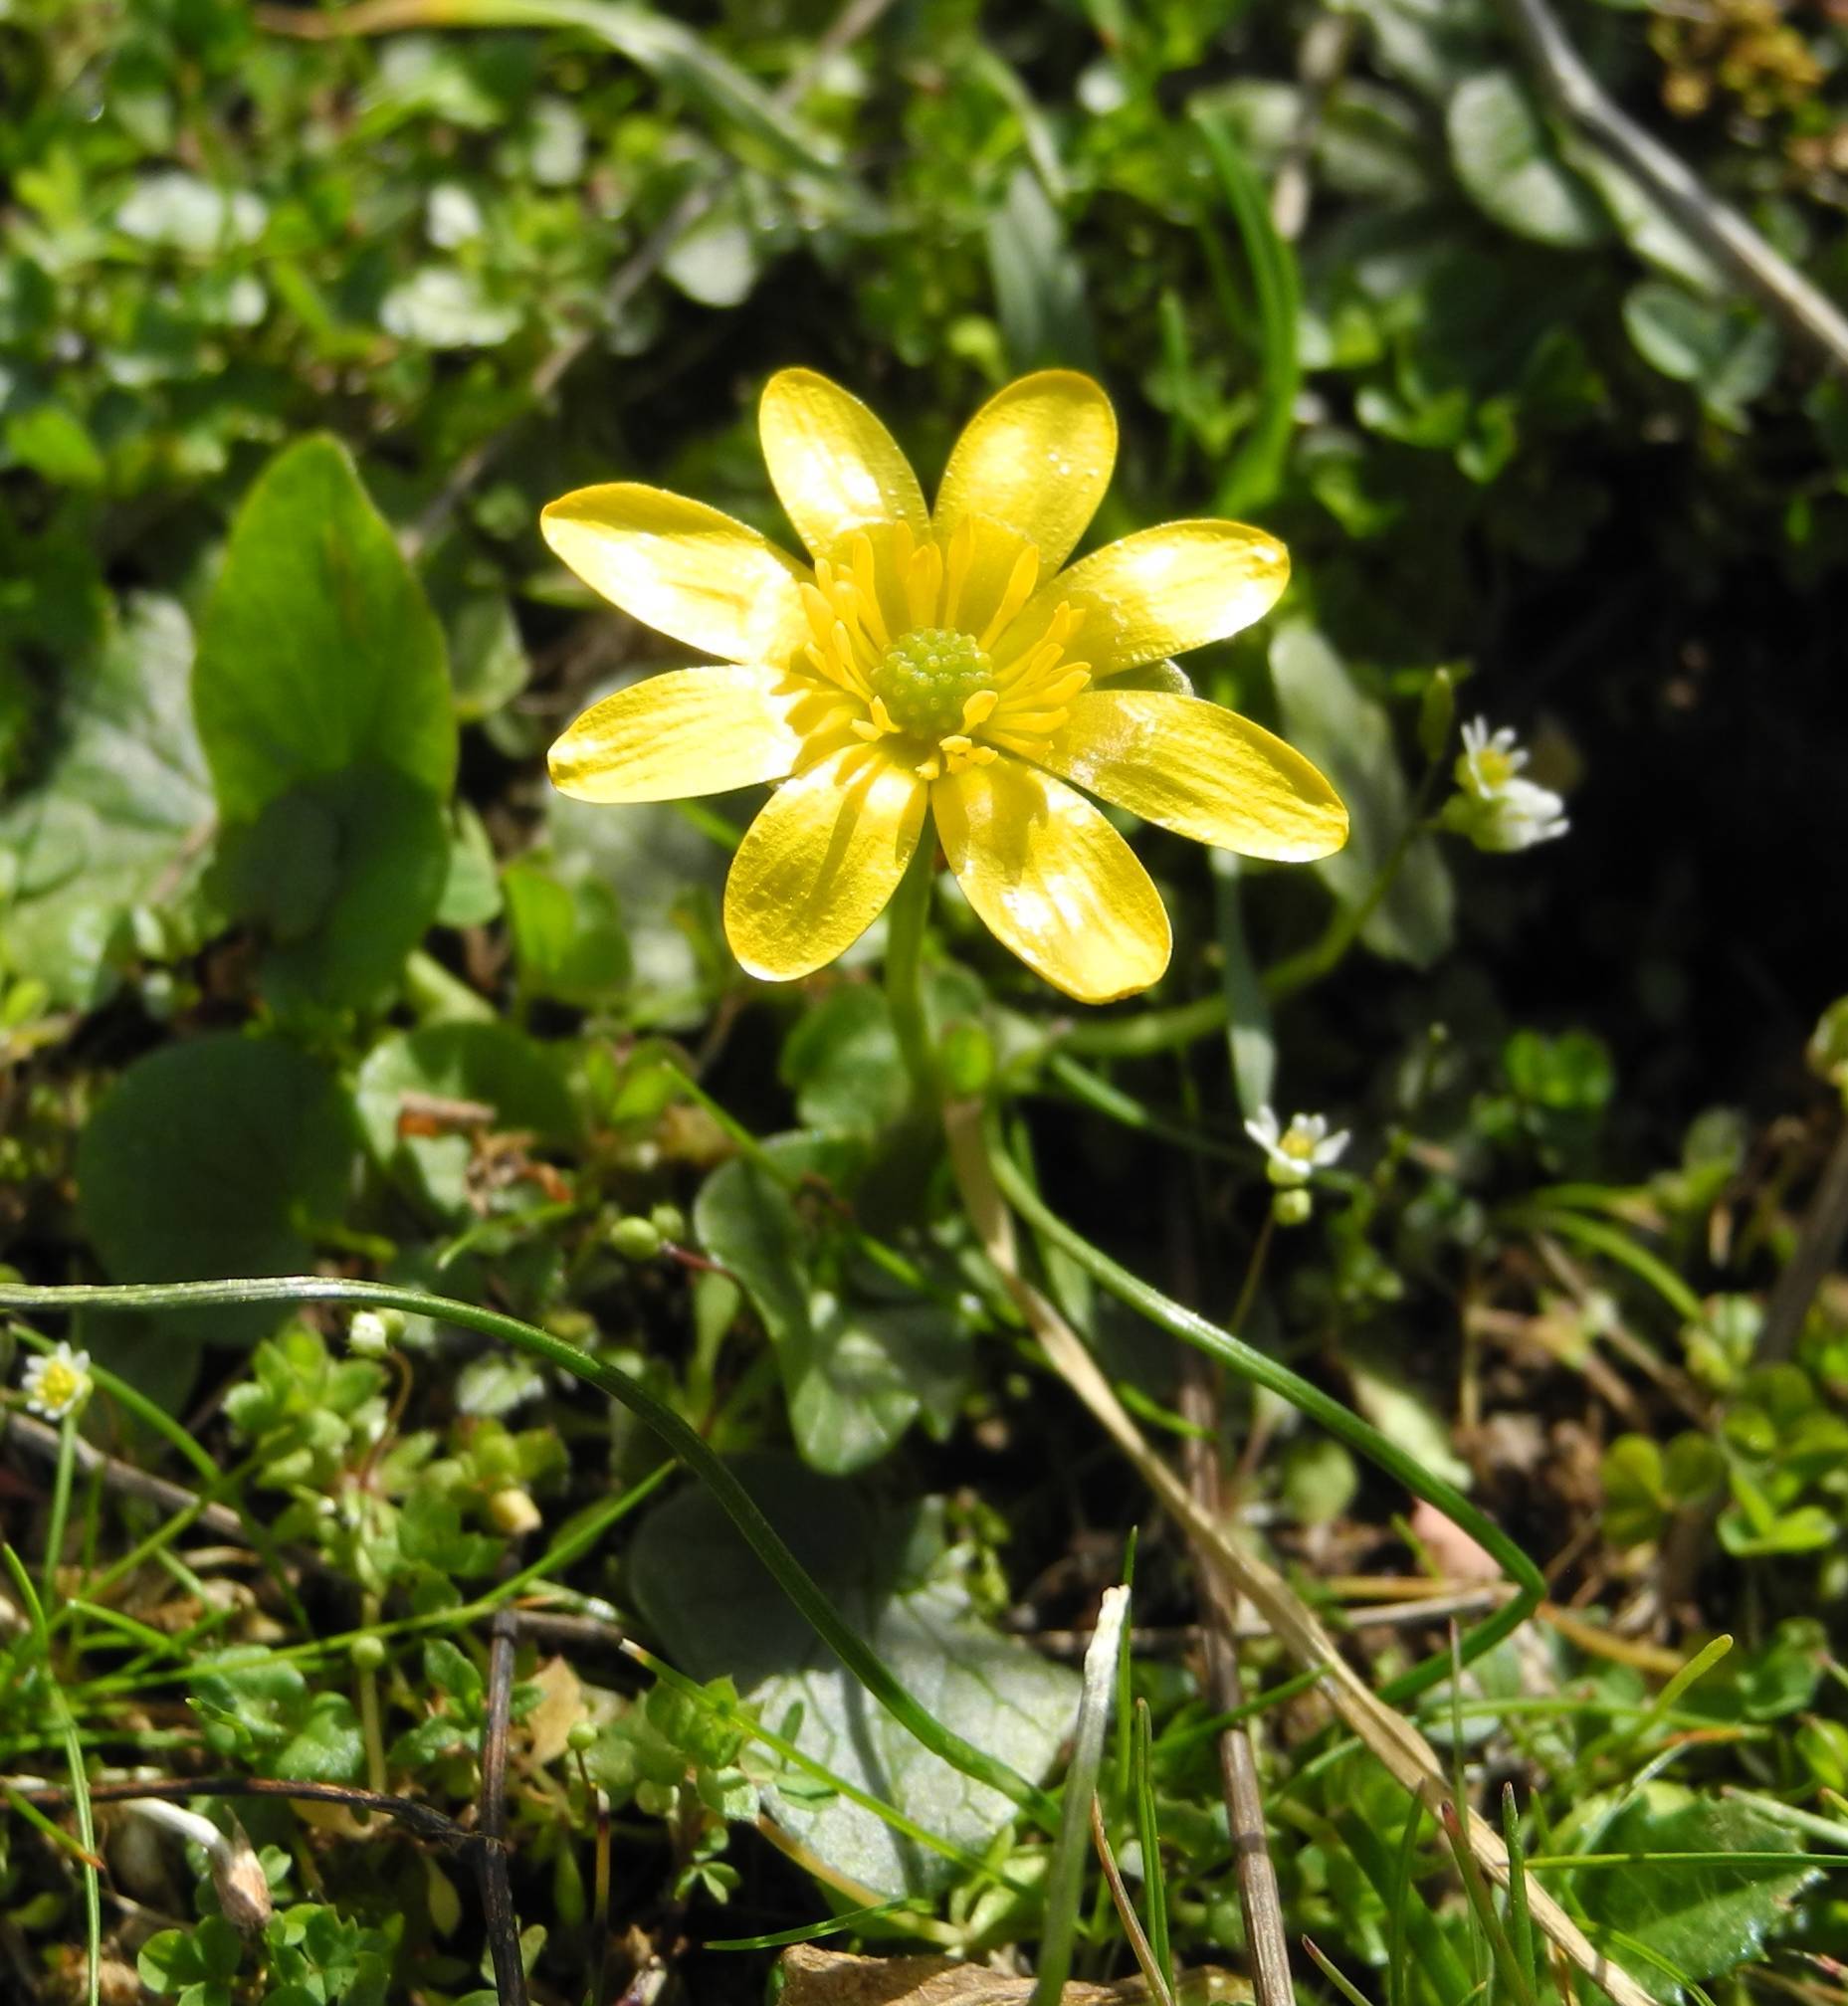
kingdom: Plantae
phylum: Tracheophyta
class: Magnoliopsida
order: Ranunculales
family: Ranunculaceae
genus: Ficaria
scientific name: Ficaria verna
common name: Lesser celandine
